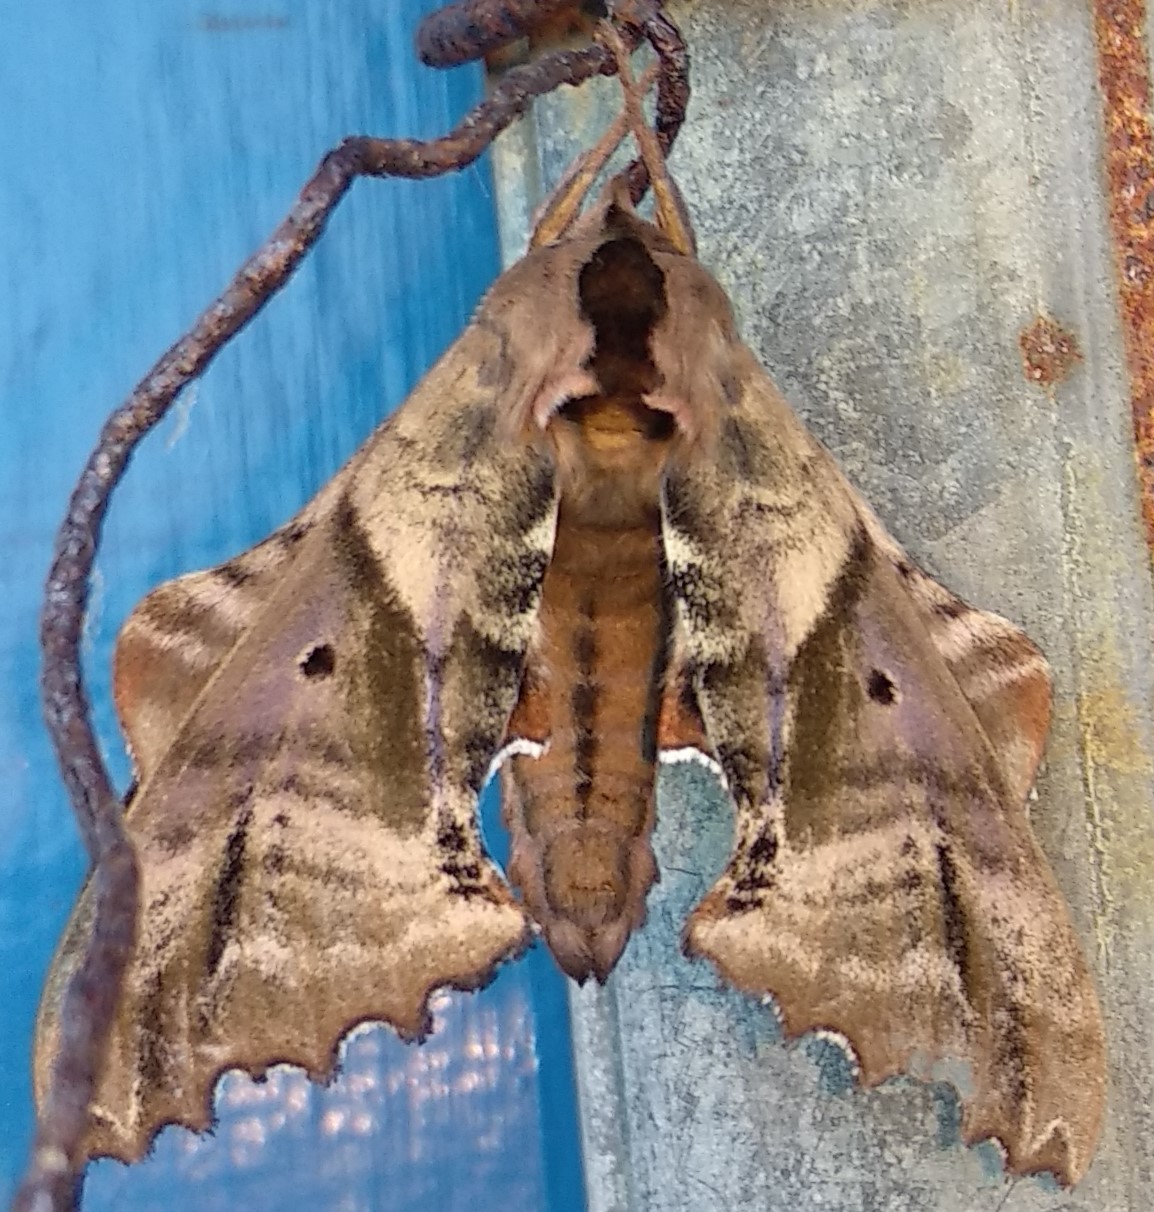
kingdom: Animalia
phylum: Arthropoda
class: Insecta
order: Lepidoptera
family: Sphingidae
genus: Paonias
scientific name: Paonias excaecata
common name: Blind-eyed sphinx
